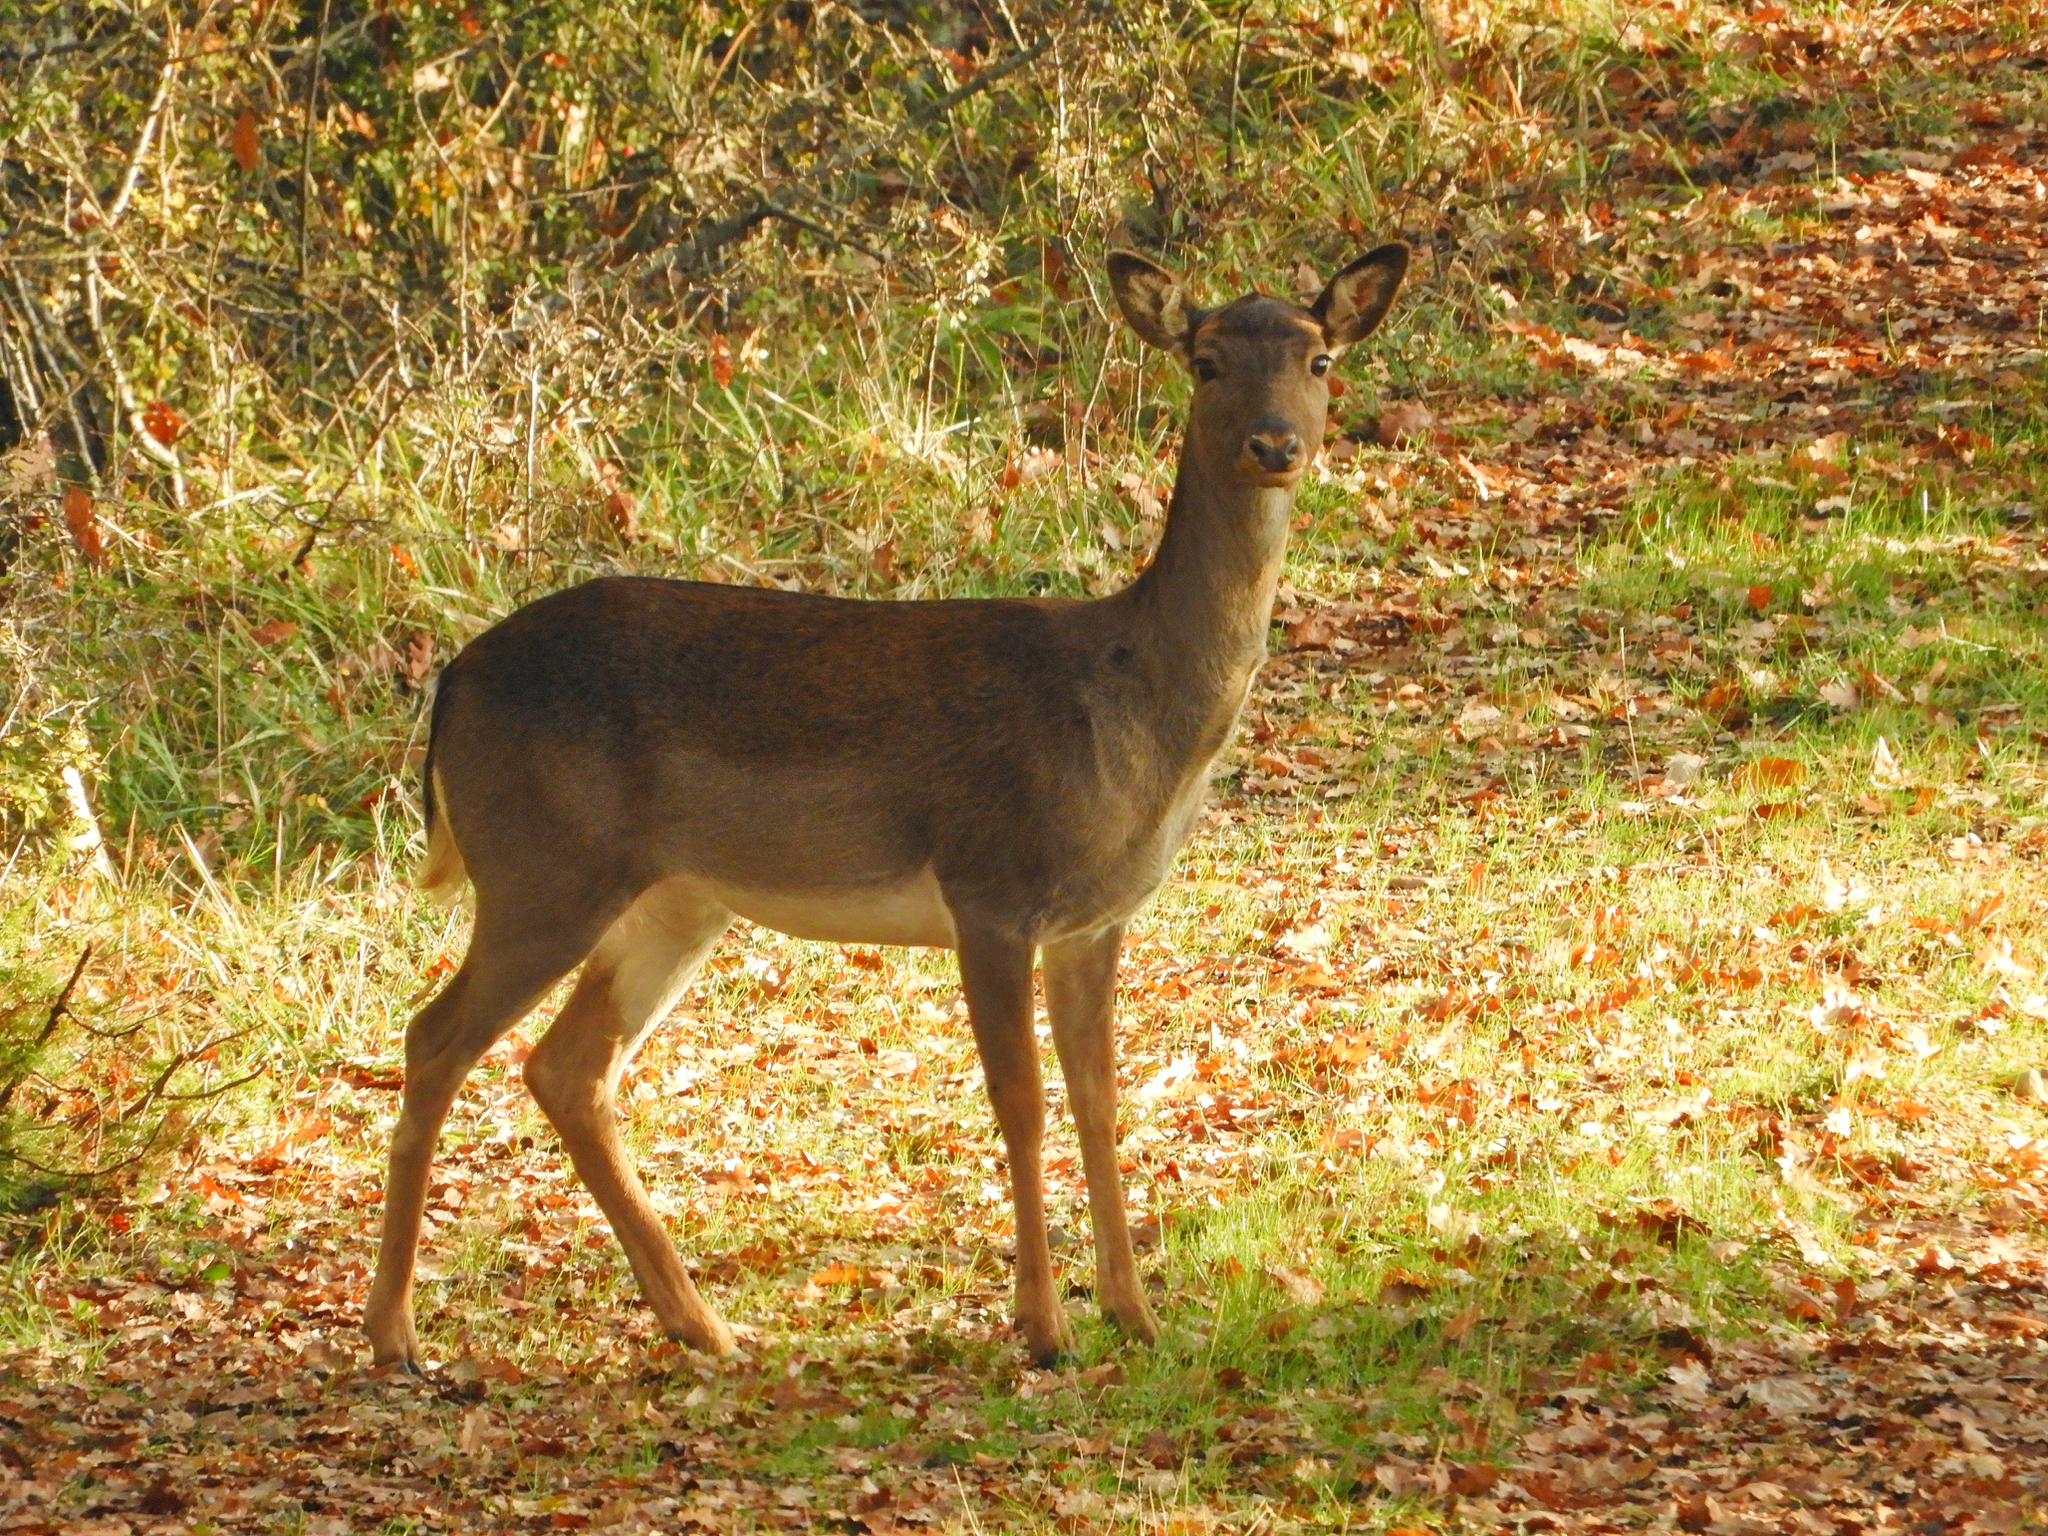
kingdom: Animalia
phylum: Chordata
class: Mammalia
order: Artiodactyla
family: Cervidae
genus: Dama
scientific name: Dama dama
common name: Fallow deer
